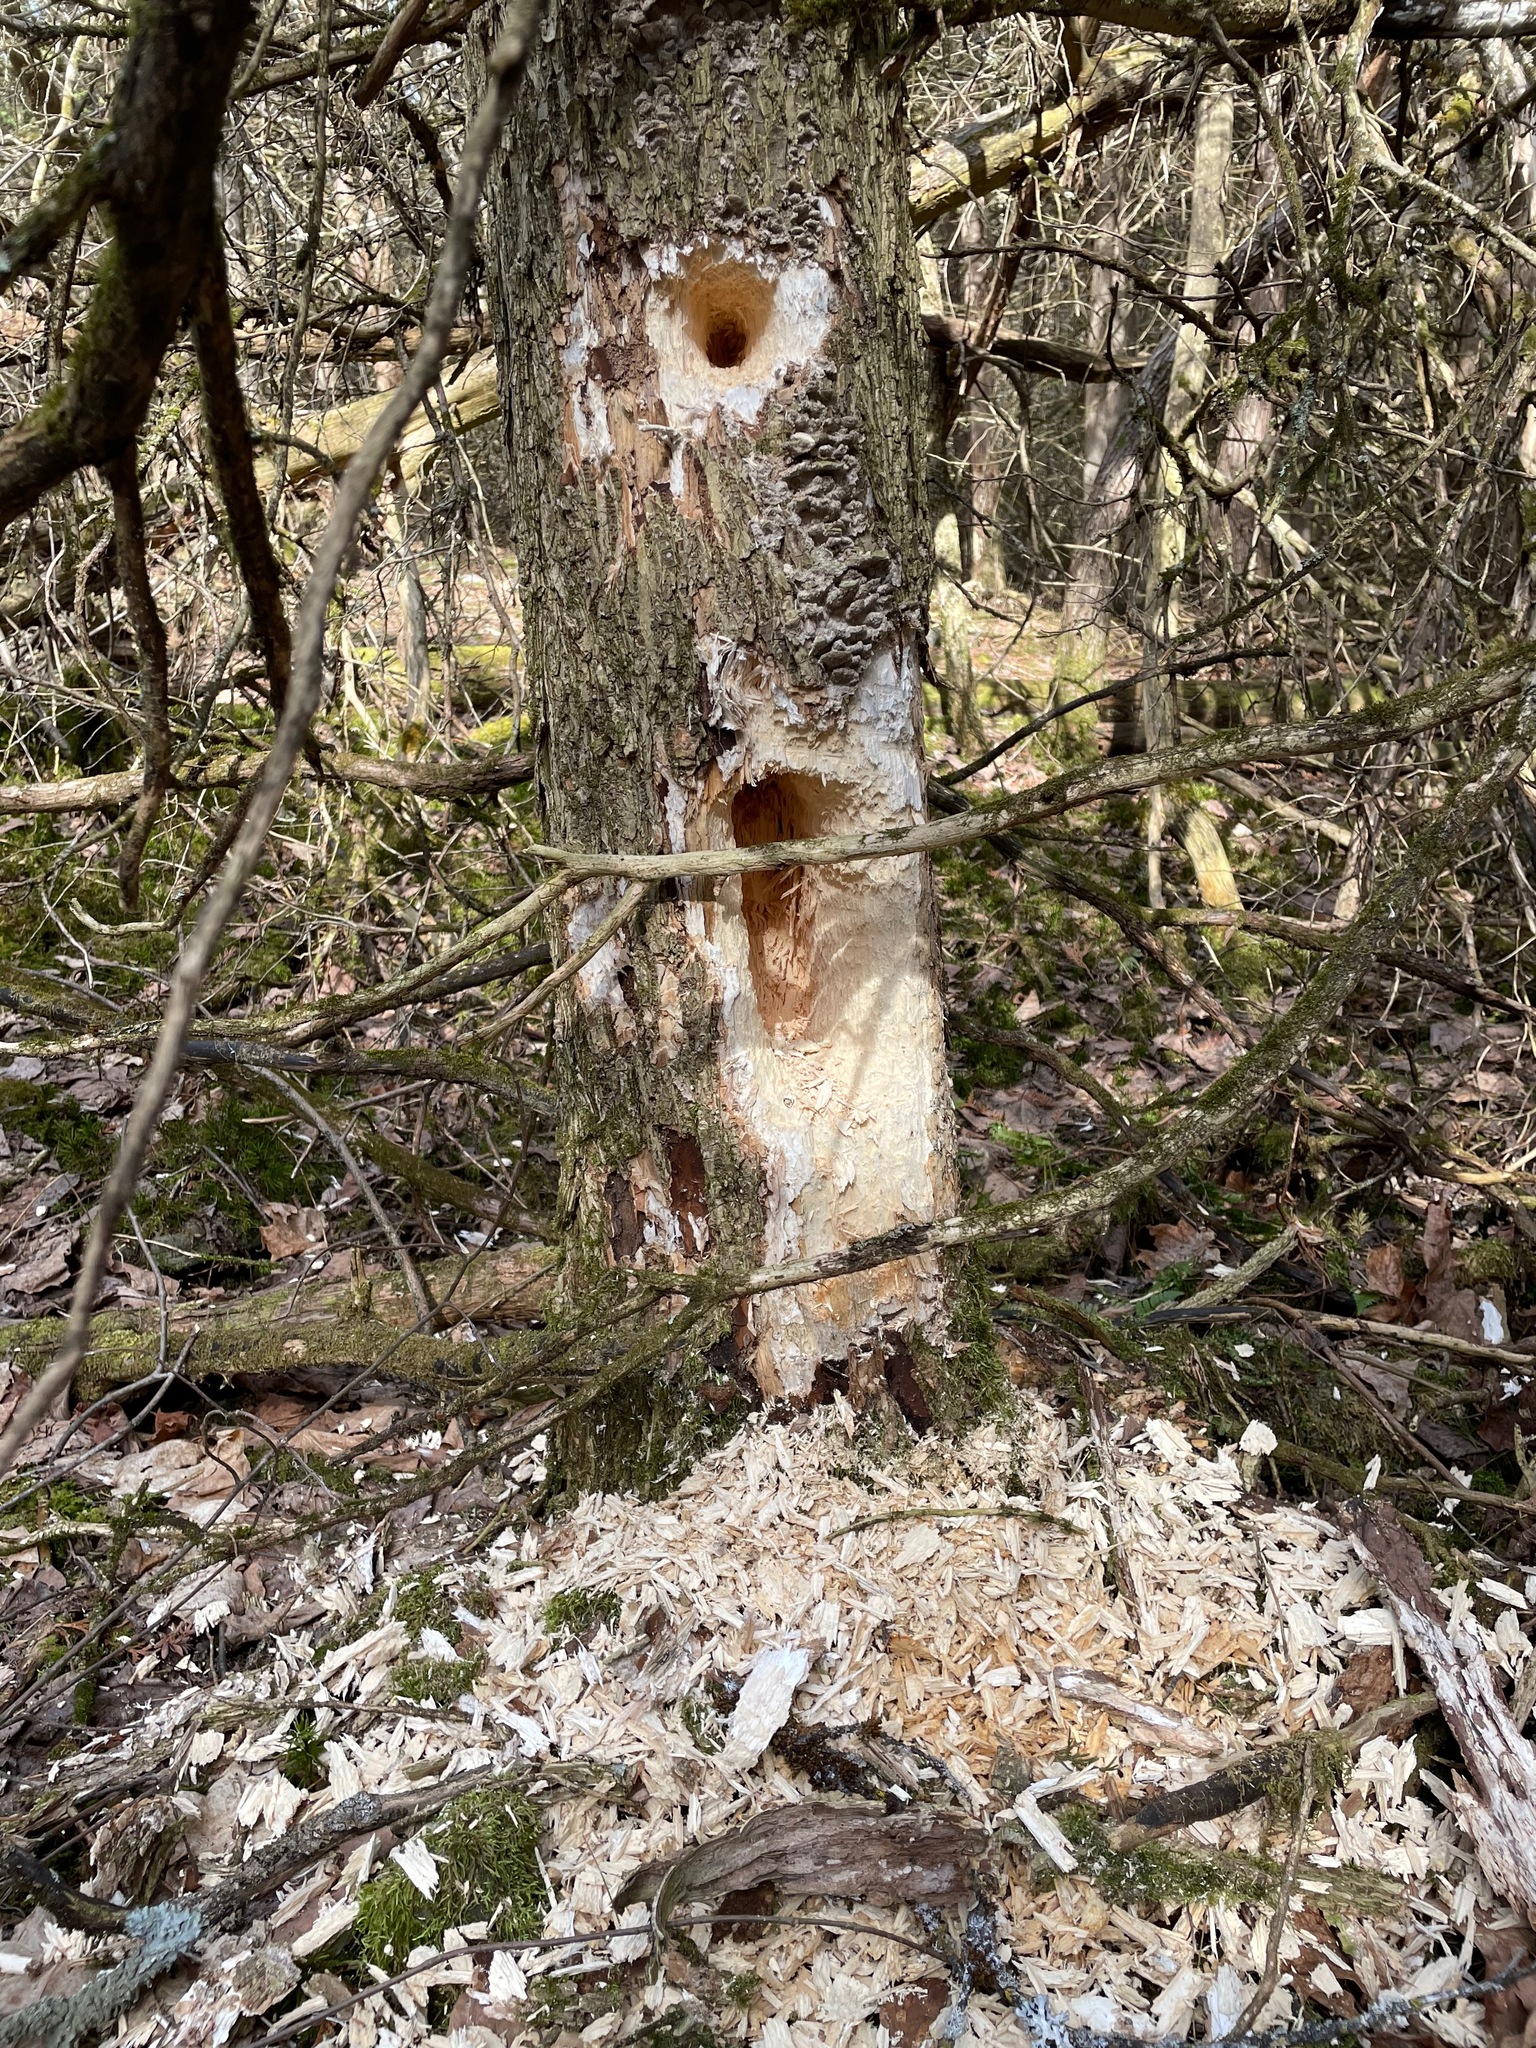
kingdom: Animalia
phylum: Chordata
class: Aves
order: Piciformes
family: Picidae
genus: Dryocopus
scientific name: Dryocopus pileatus
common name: Pileated woodpecker
